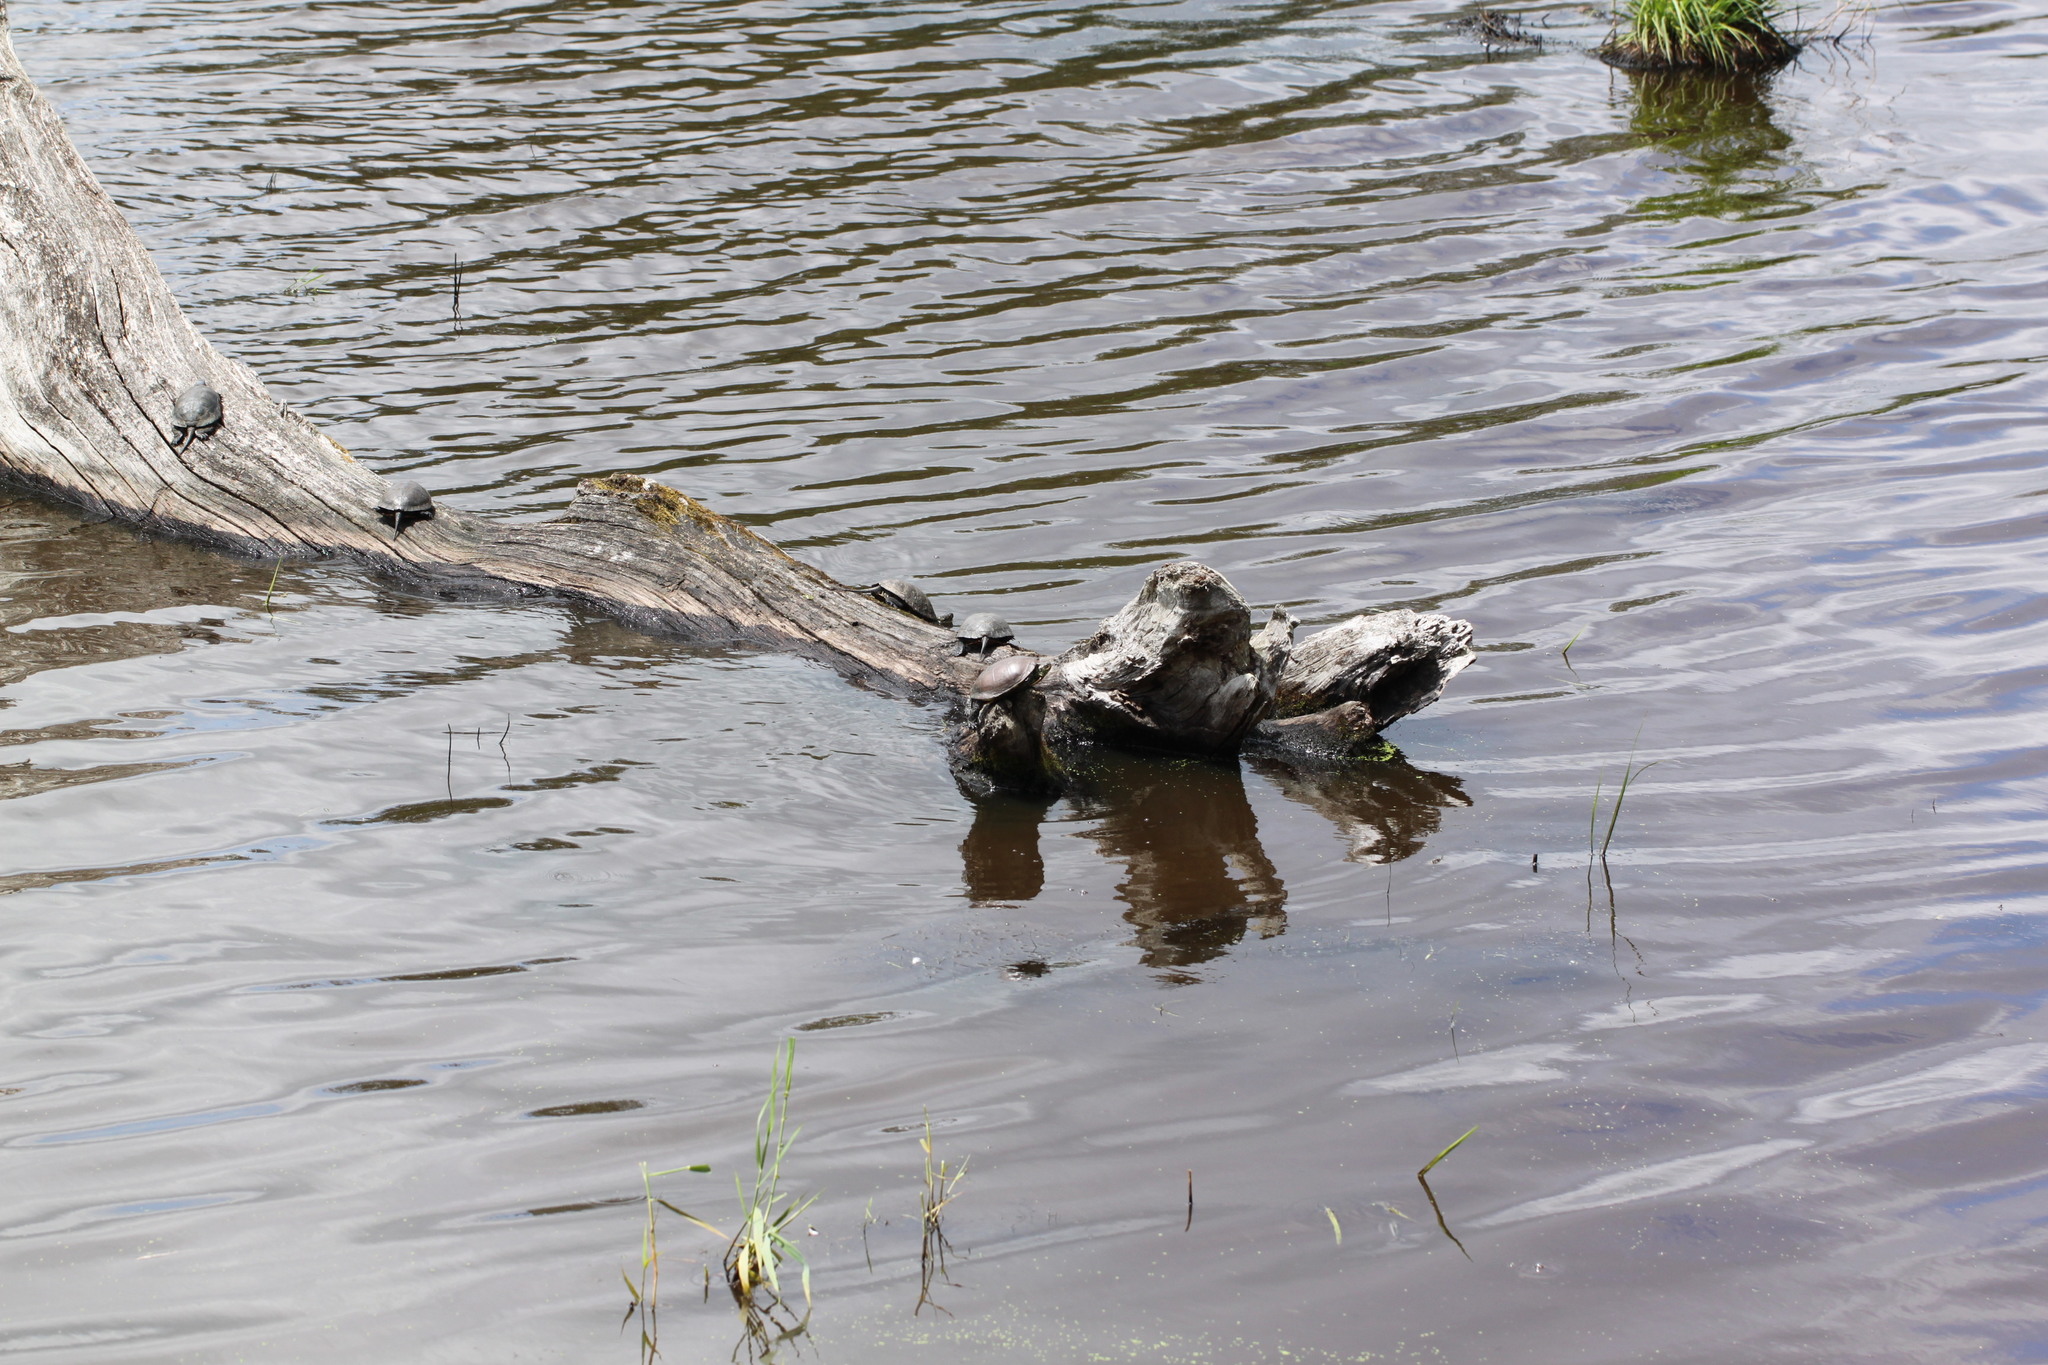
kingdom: Animalia
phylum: Chordata
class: Testudines
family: Emydidae
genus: Emys
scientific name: Emys orbicularis
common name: European pond turtle
